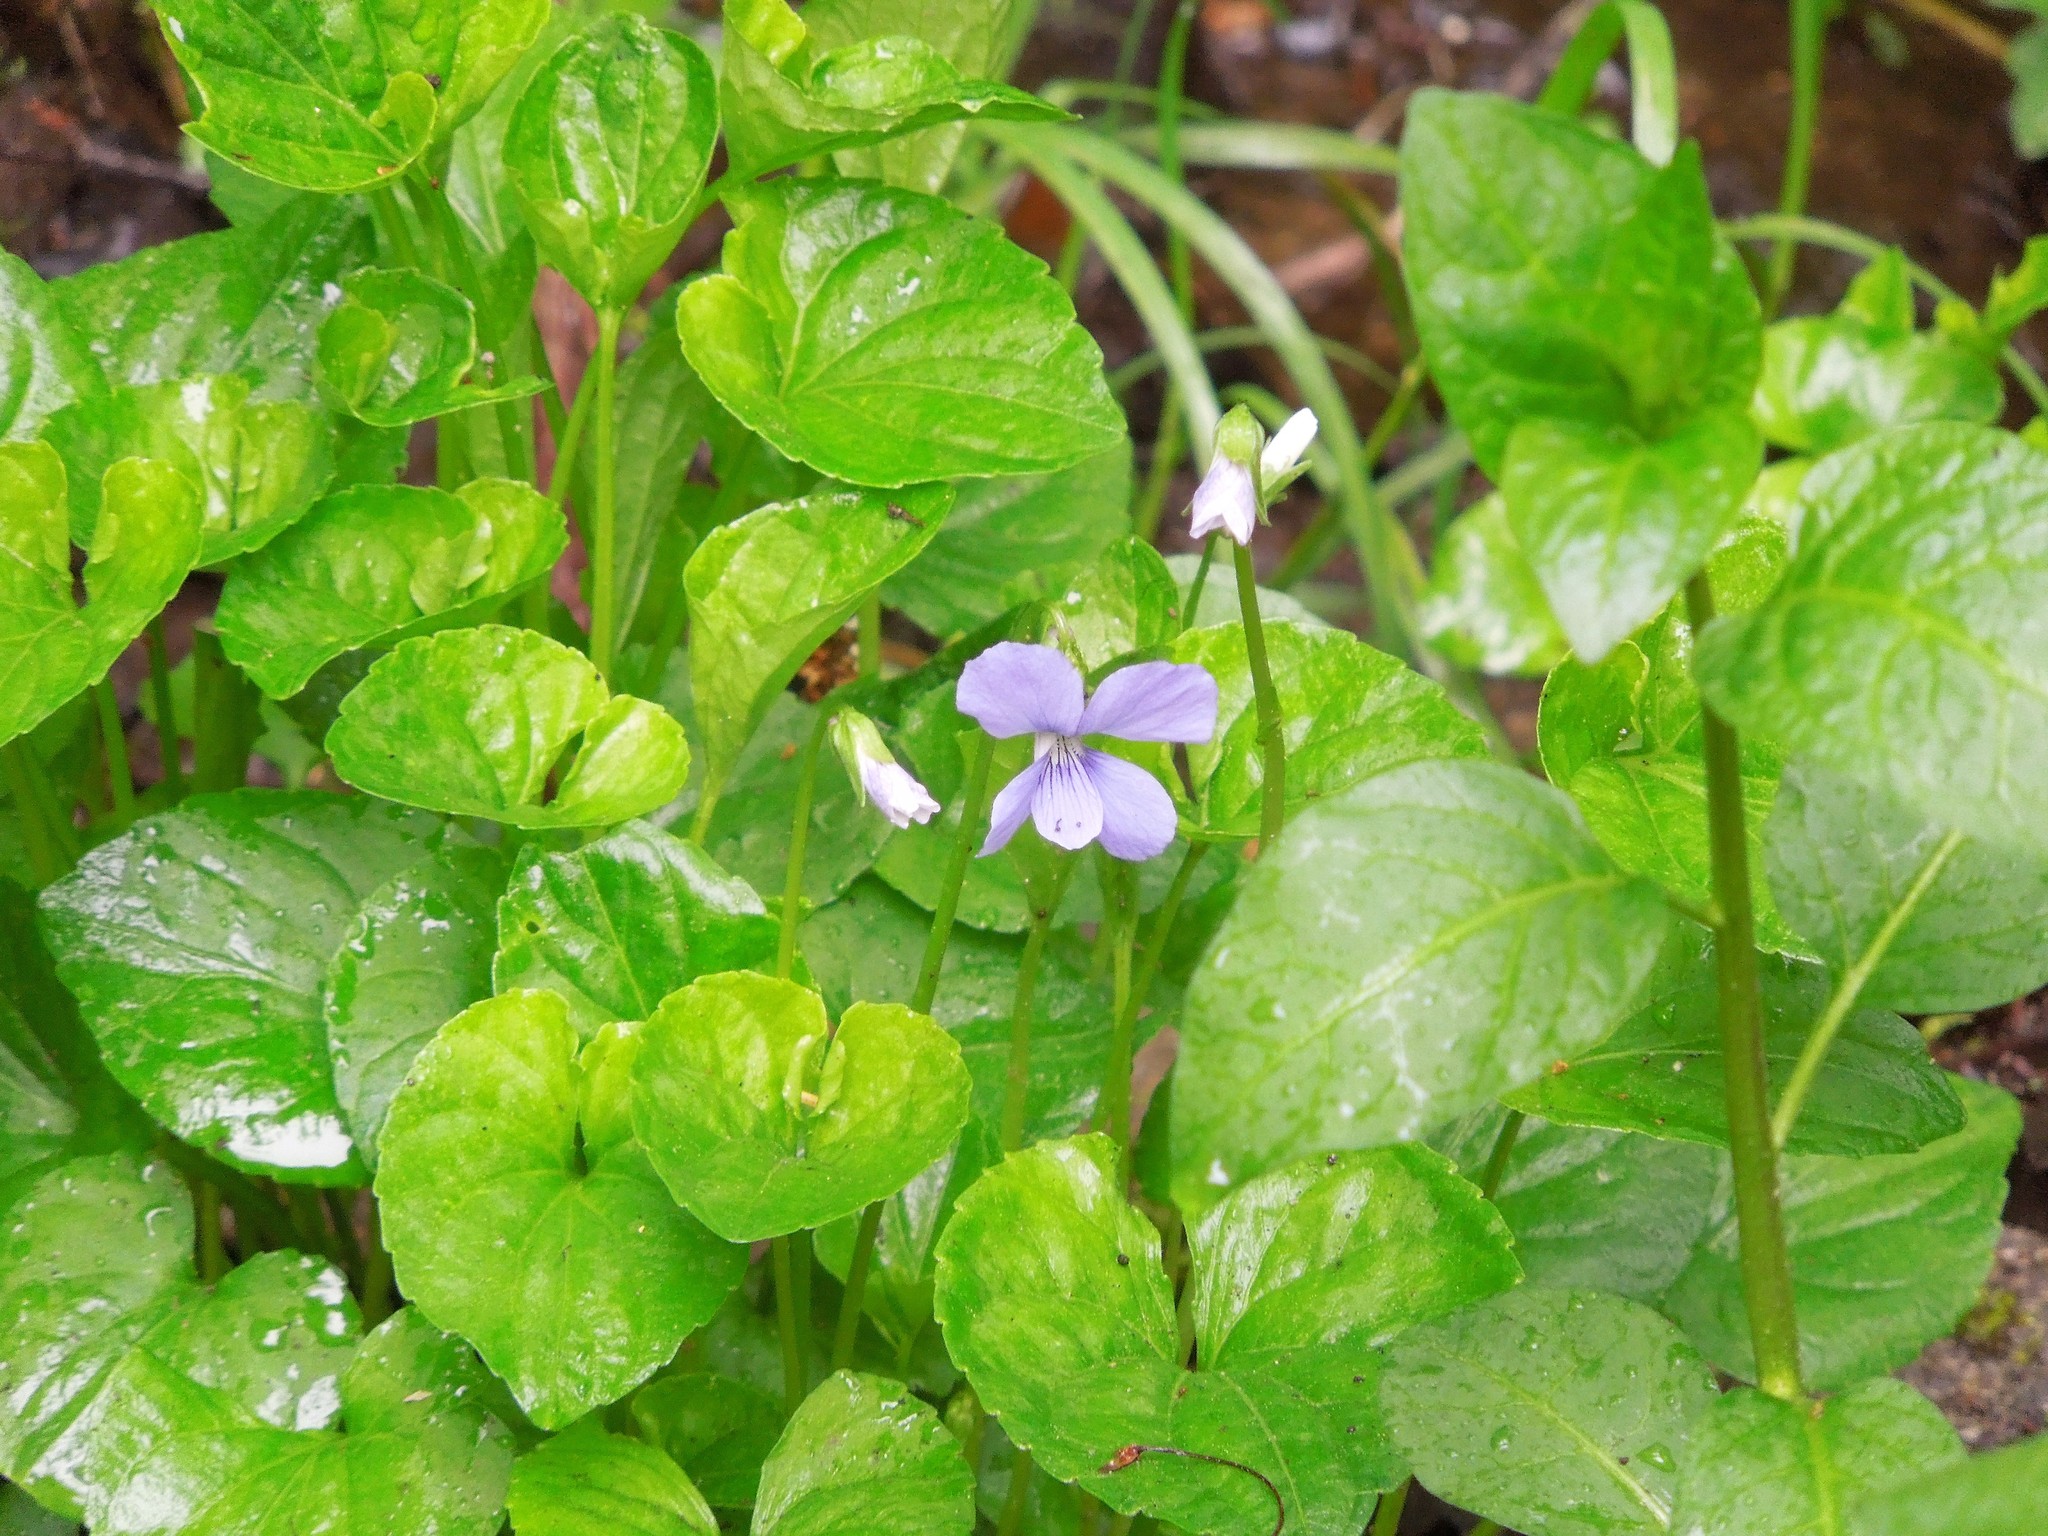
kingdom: Plantae
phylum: Tracheophyta
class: Magnoliopsida
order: Malpighiales
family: Violaceae
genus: Viola
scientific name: Viola cucullata
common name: Marsh blue violet
